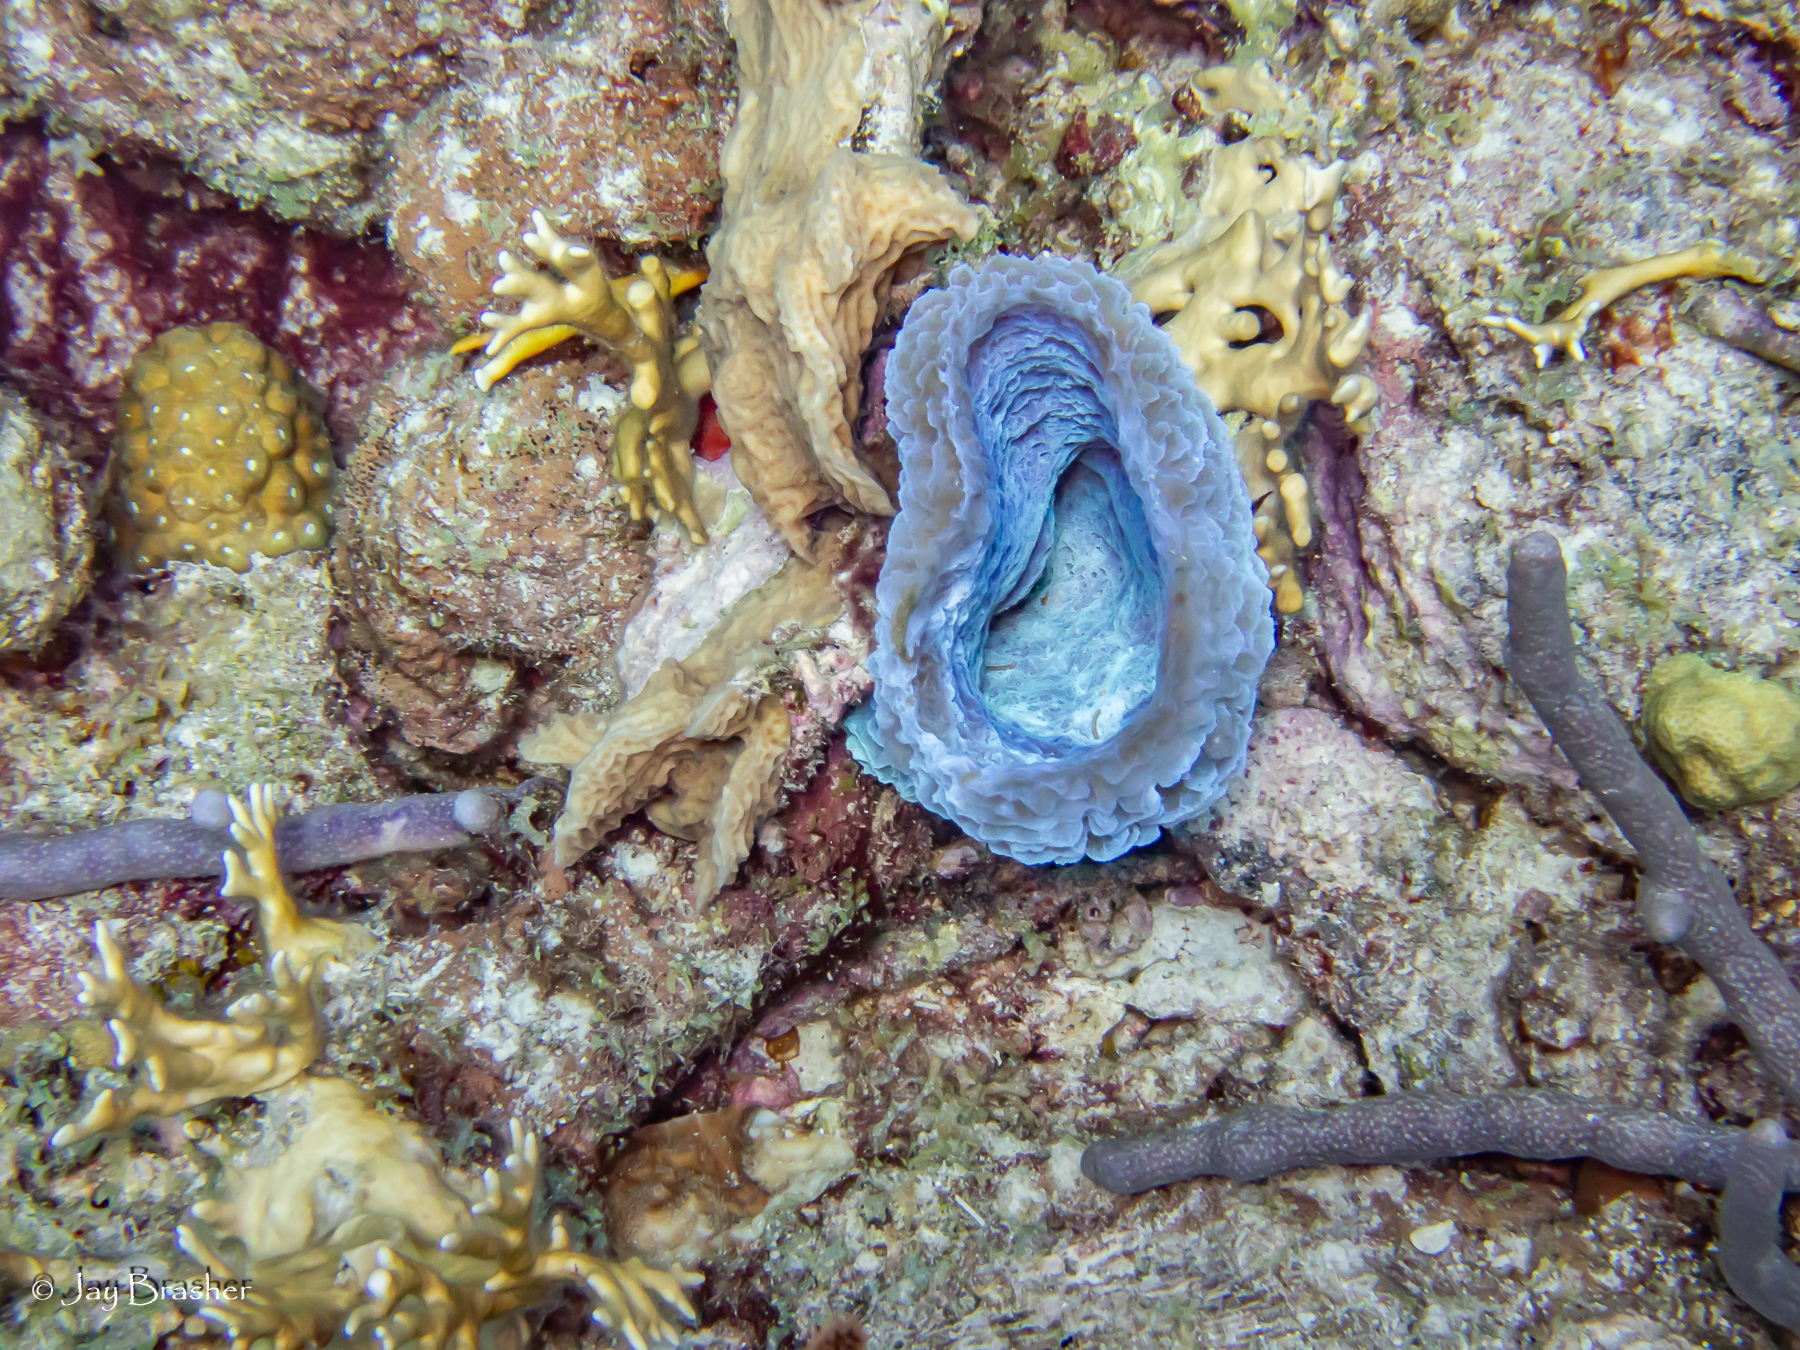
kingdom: Animalia
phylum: Porifera
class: Demospongiae
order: Haplosclerida
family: Callyspongiidae
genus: Callyspongia
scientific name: Callyspongia plicifera
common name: Azure vase sponge
